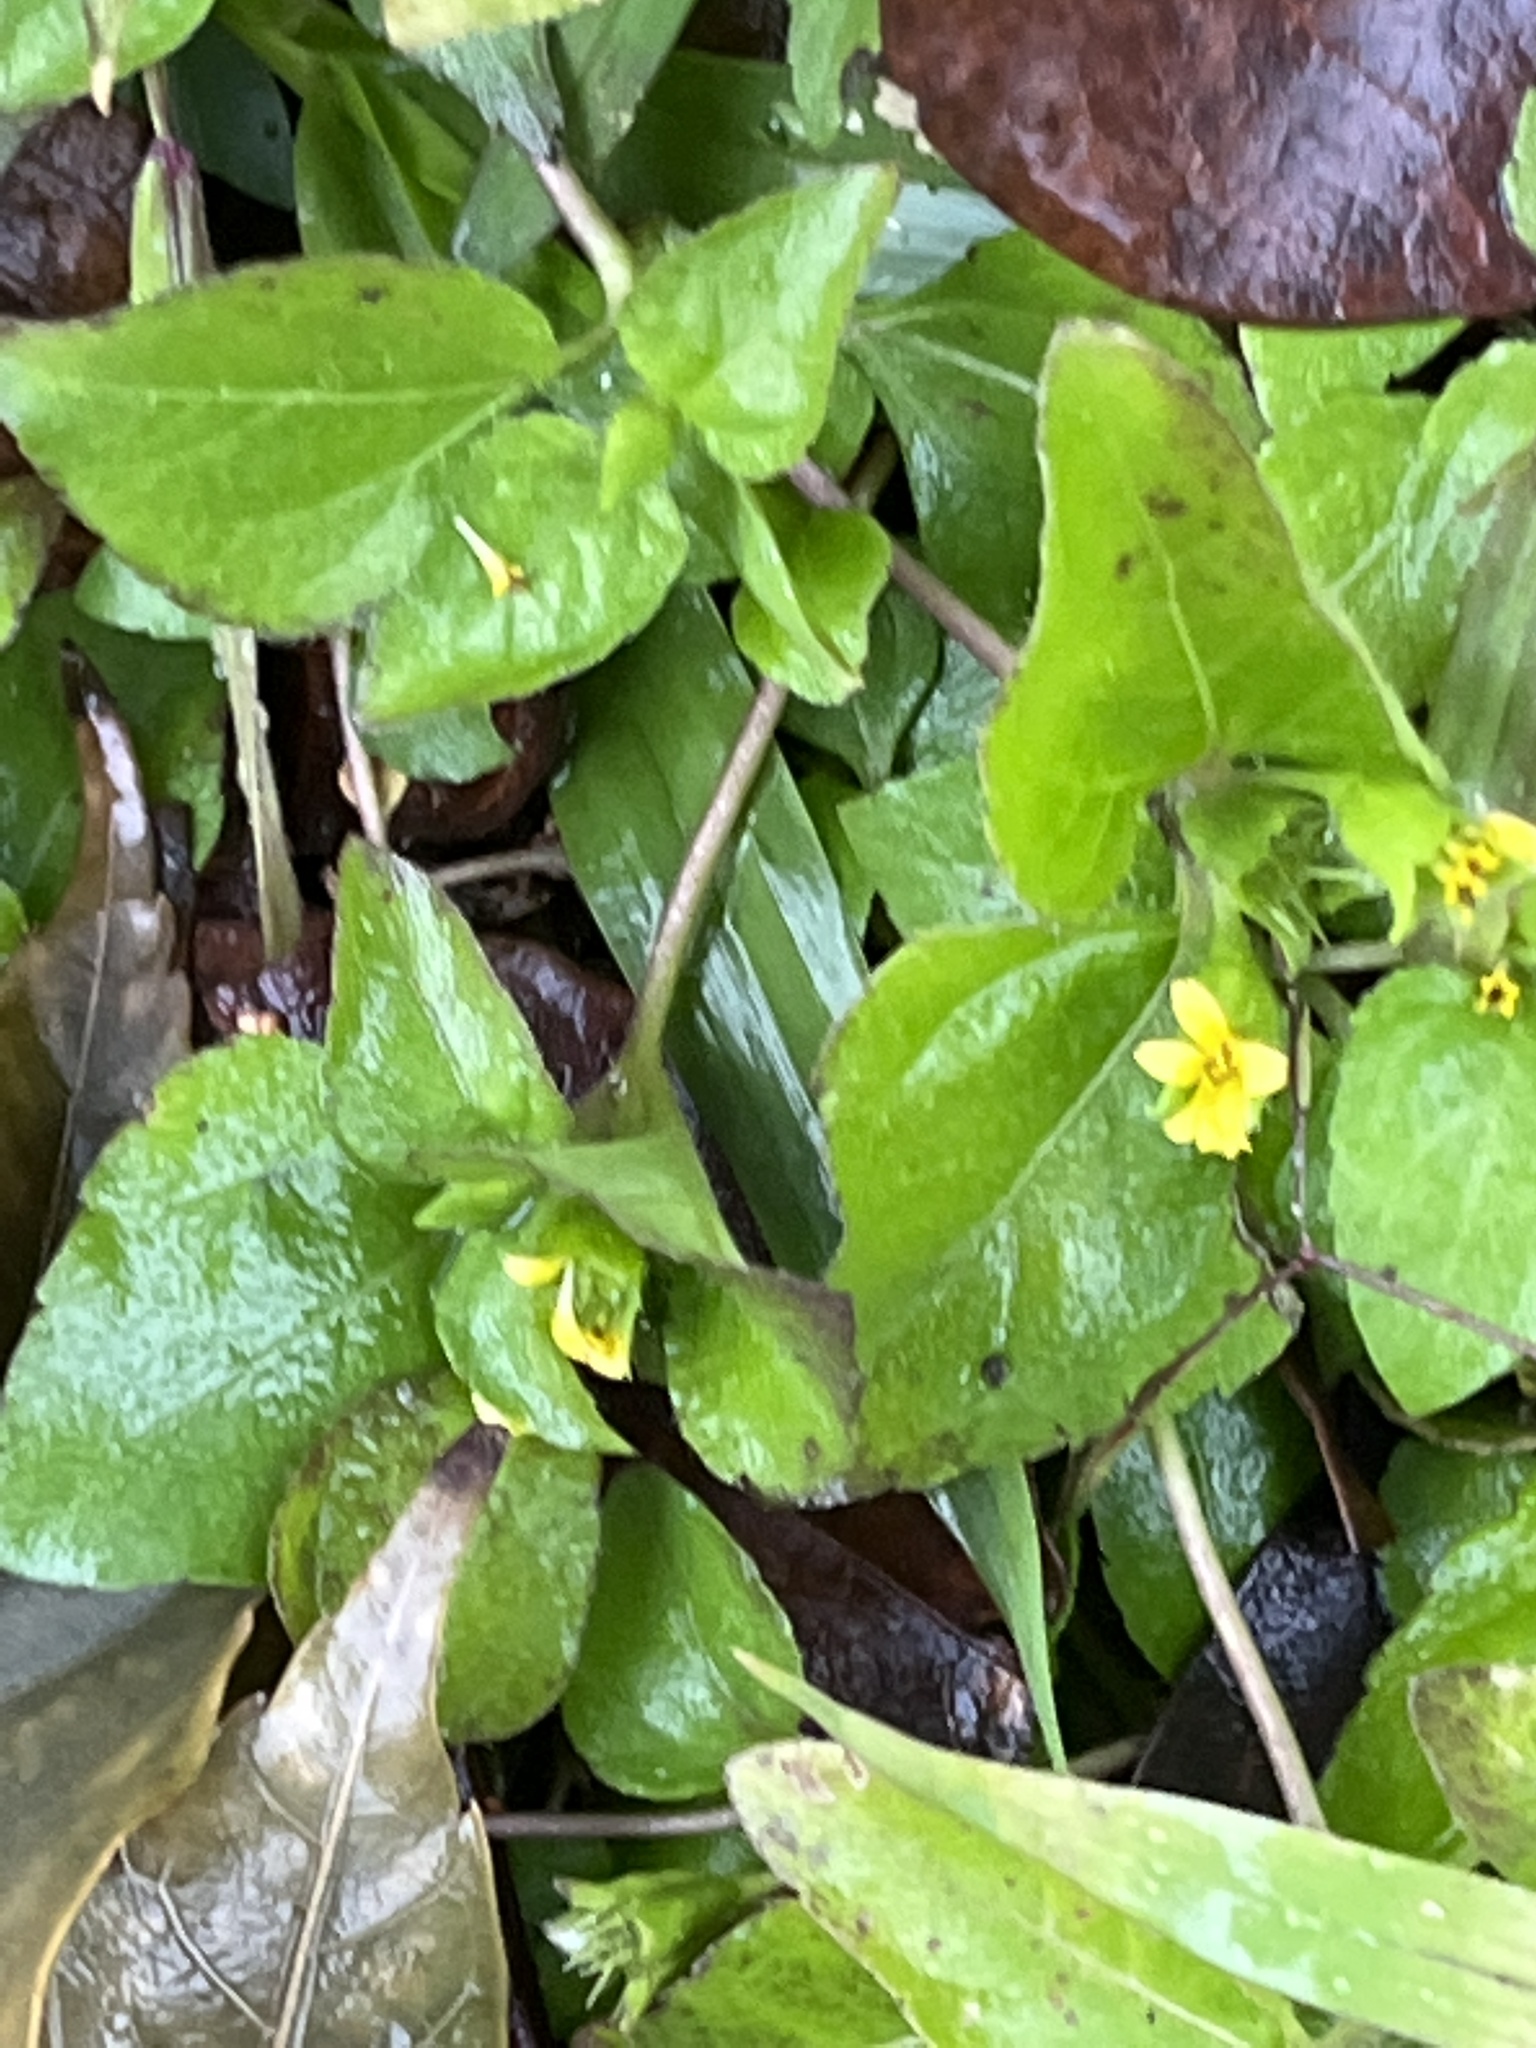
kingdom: Plantae
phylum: Tracheophyta
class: Magnoliopsida
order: Asterales
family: Asteraceae
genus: Calyptocarpus
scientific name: Calyptocarpus vialis
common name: Straggler daisy
